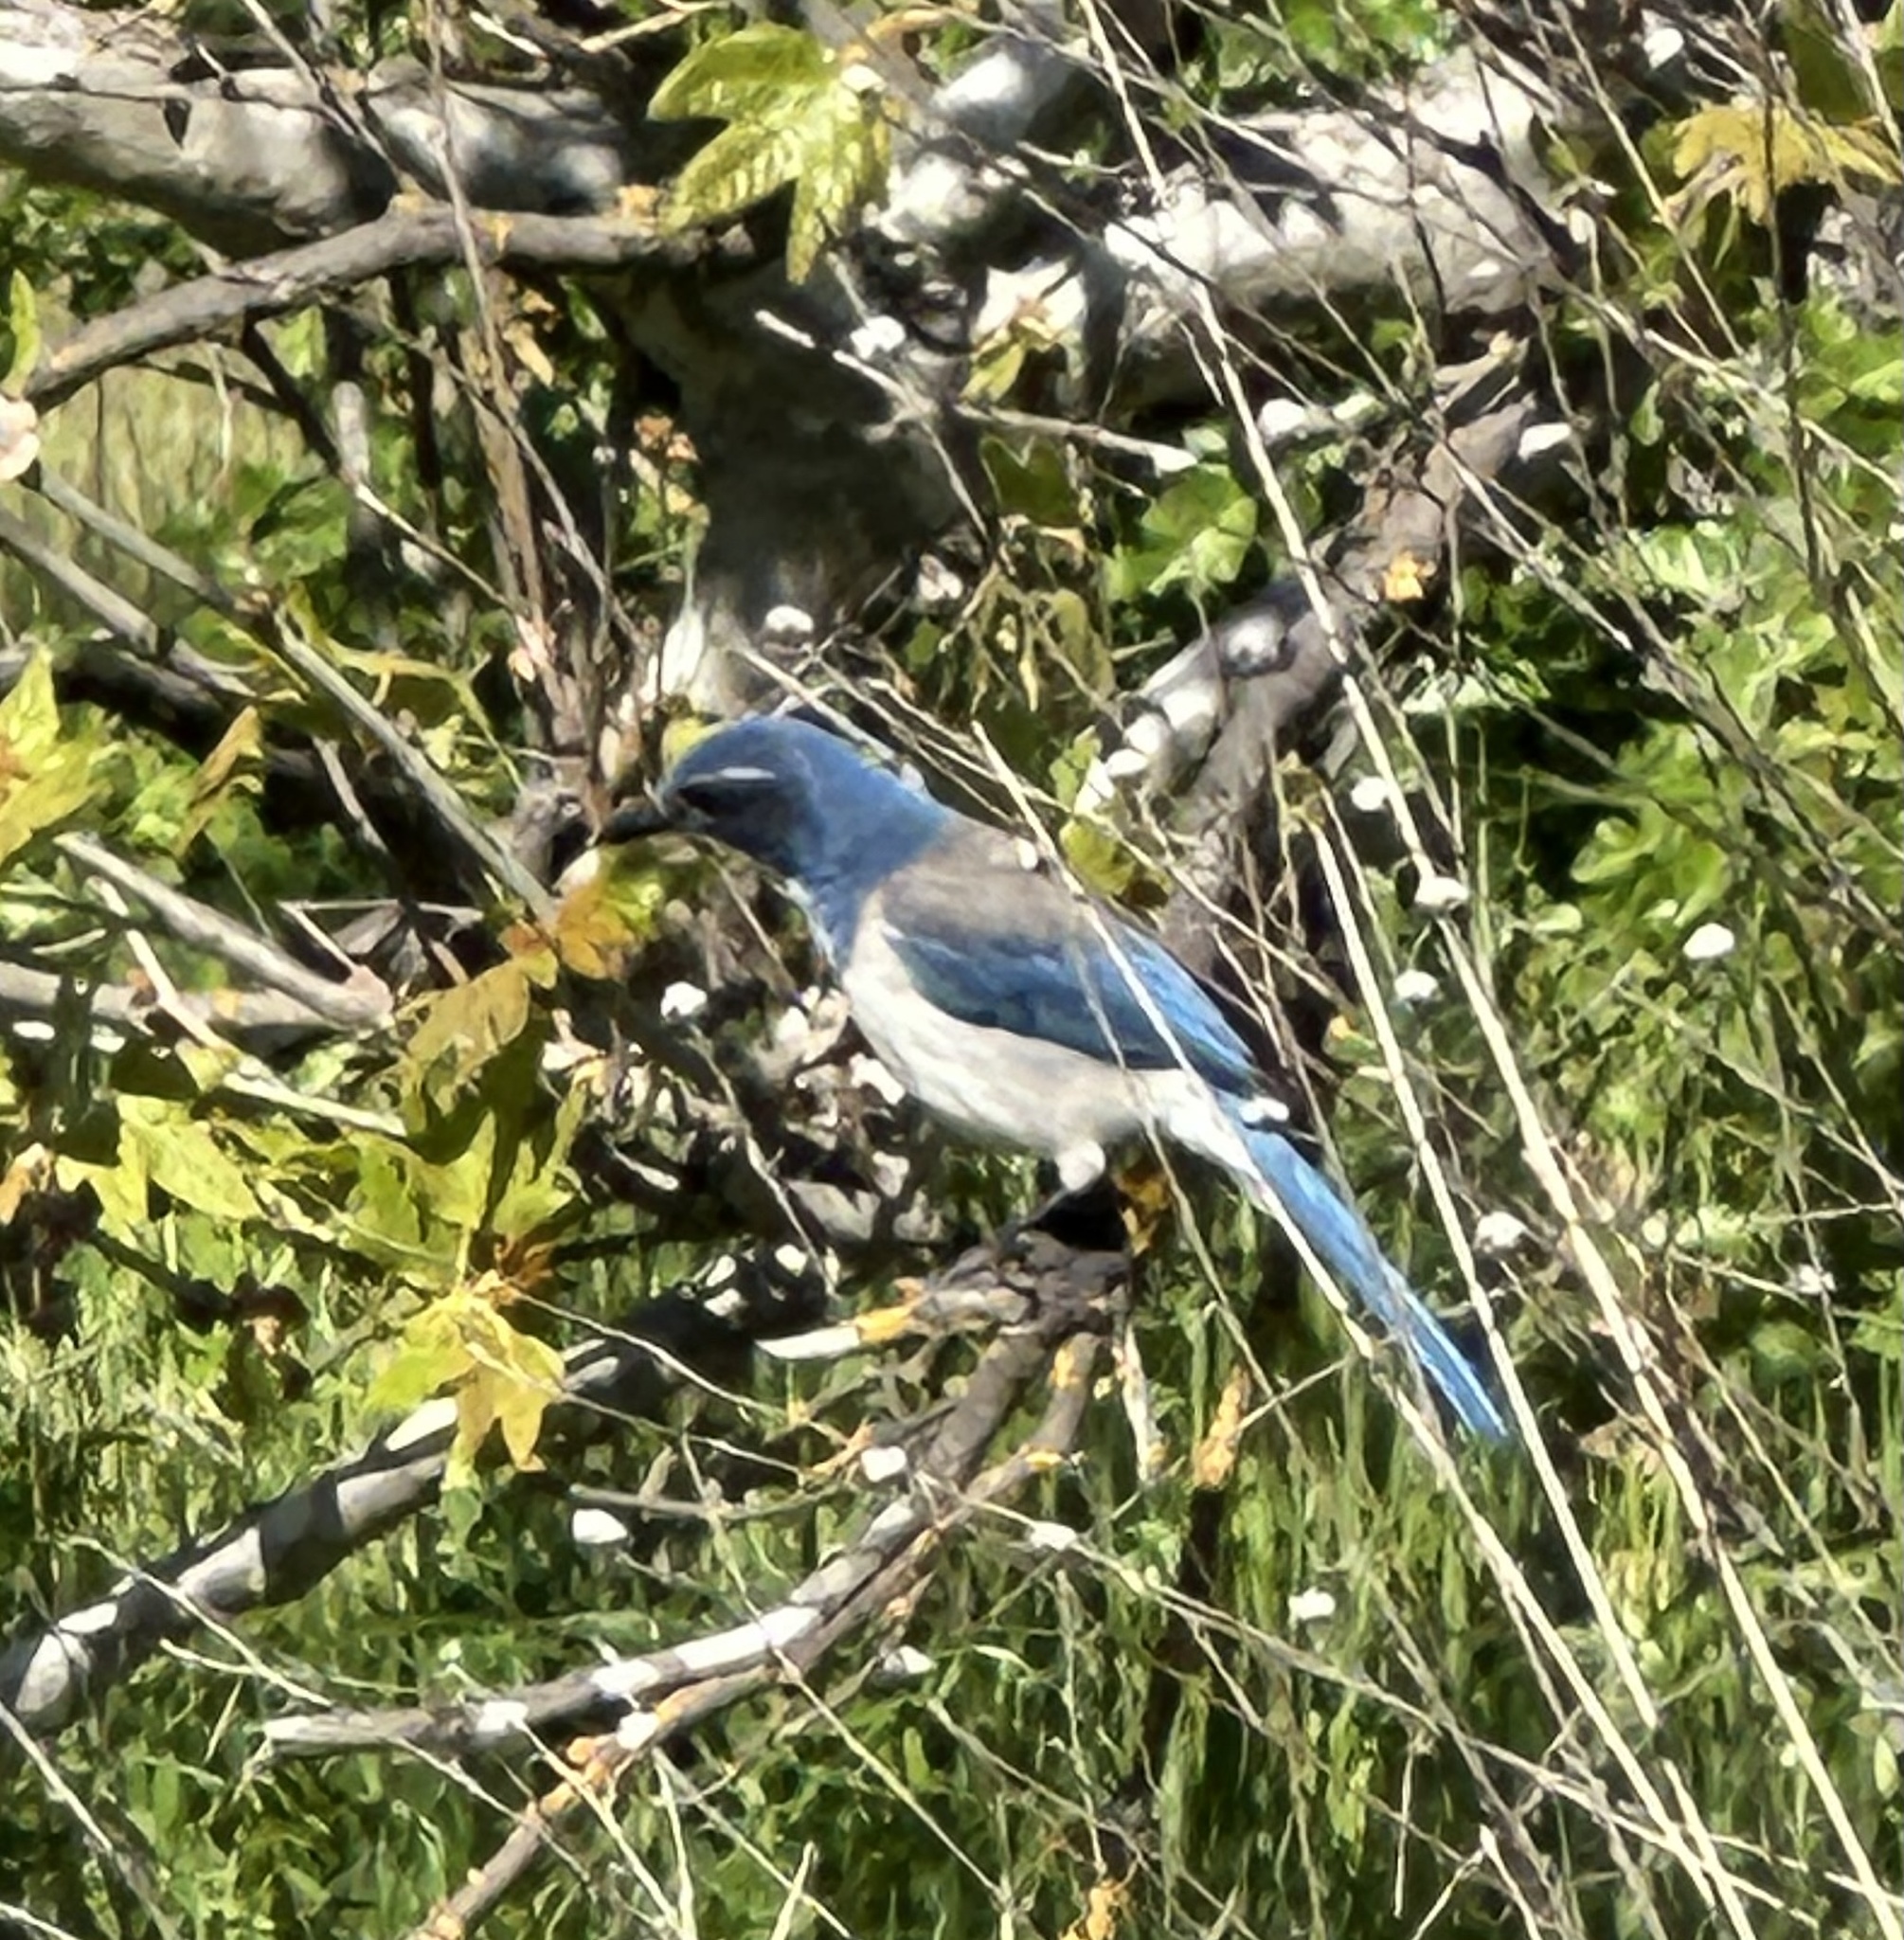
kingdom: Animalia
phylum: Chordata
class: Aves
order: Passeriformes
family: Corvidae
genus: Aphelocoma
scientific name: Aphelocoma californica
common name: California scrub-jay
